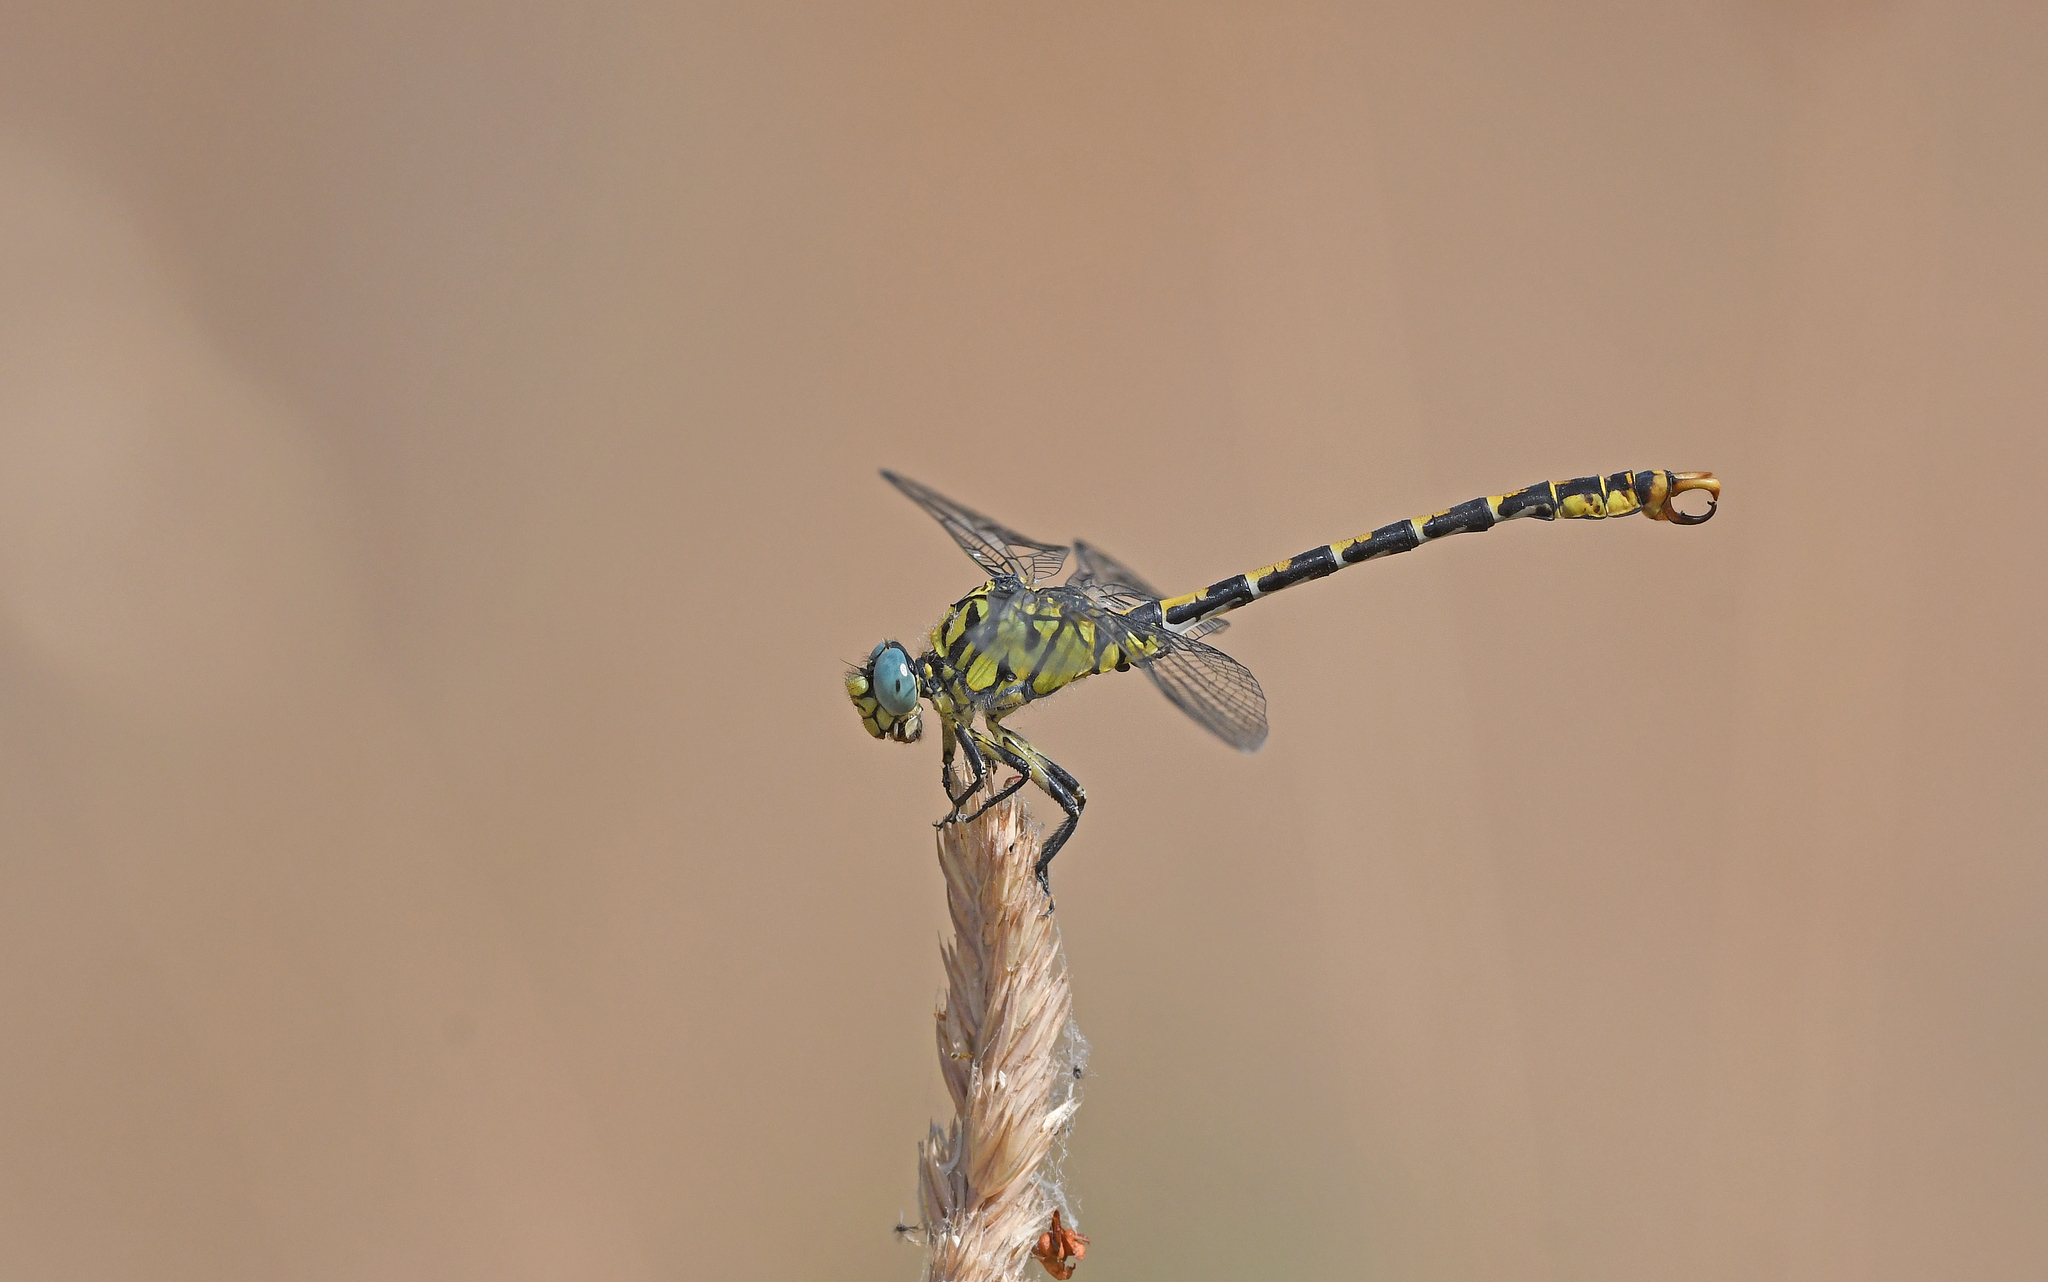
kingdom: Animalia
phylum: Arthropoda
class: Insecta
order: Odonata
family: Gomphidae
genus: Onychogomphus
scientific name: Onychogomphus forcipatus
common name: Small pincertail
